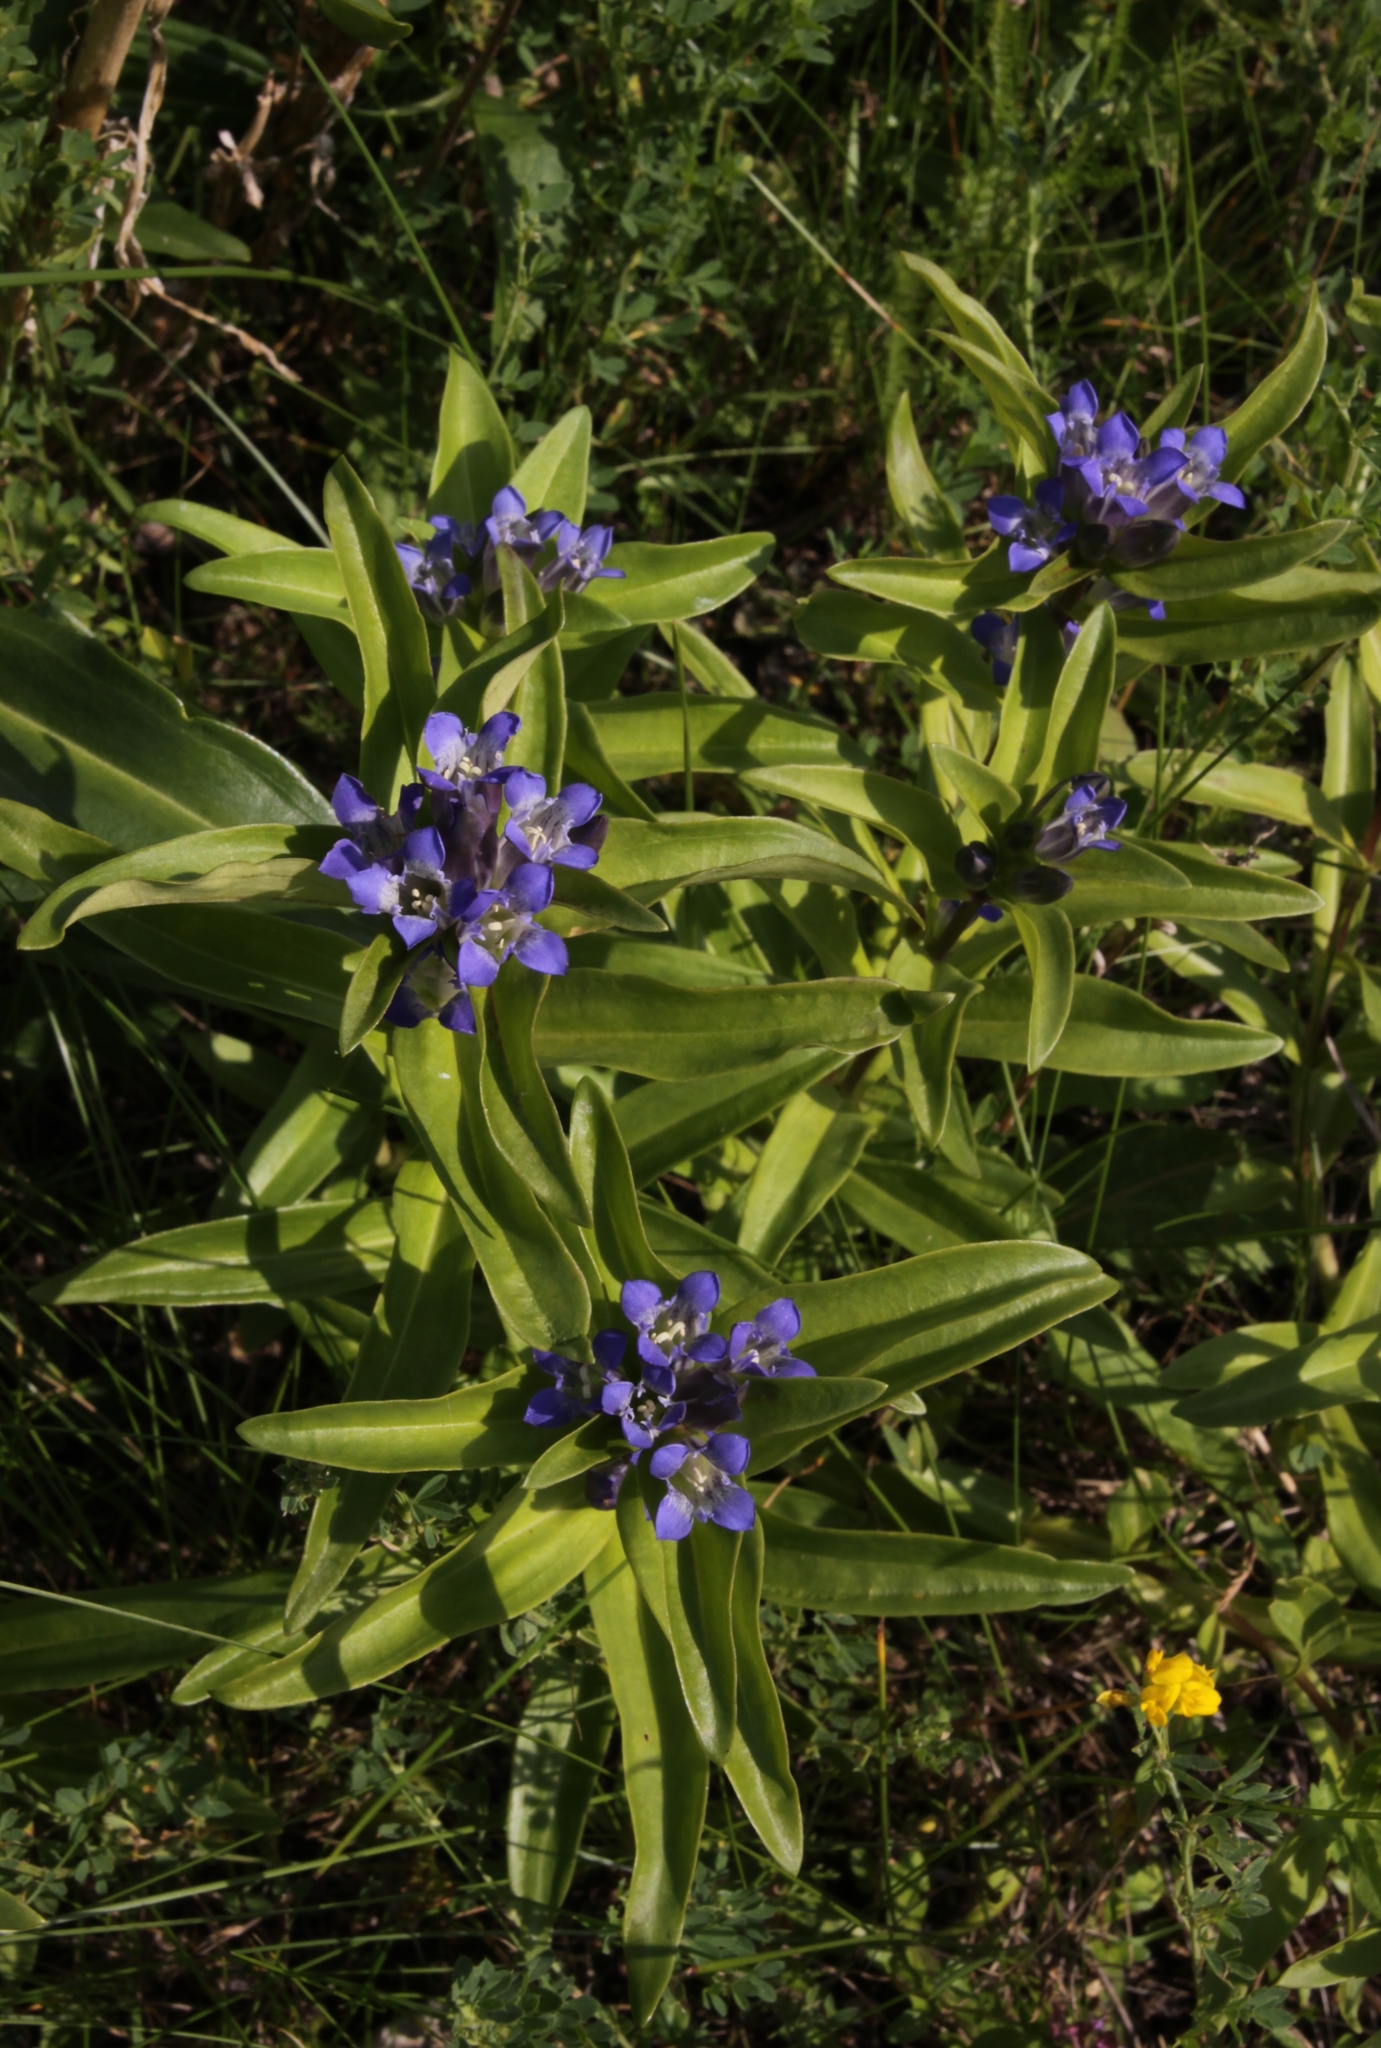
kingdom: Plantae
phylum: Tracheophyta
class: Magnoliopsida
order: Gentianales
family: Gentianaceae
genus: Gentiana
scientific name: Gentiana cruciata
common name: Cross gentian
